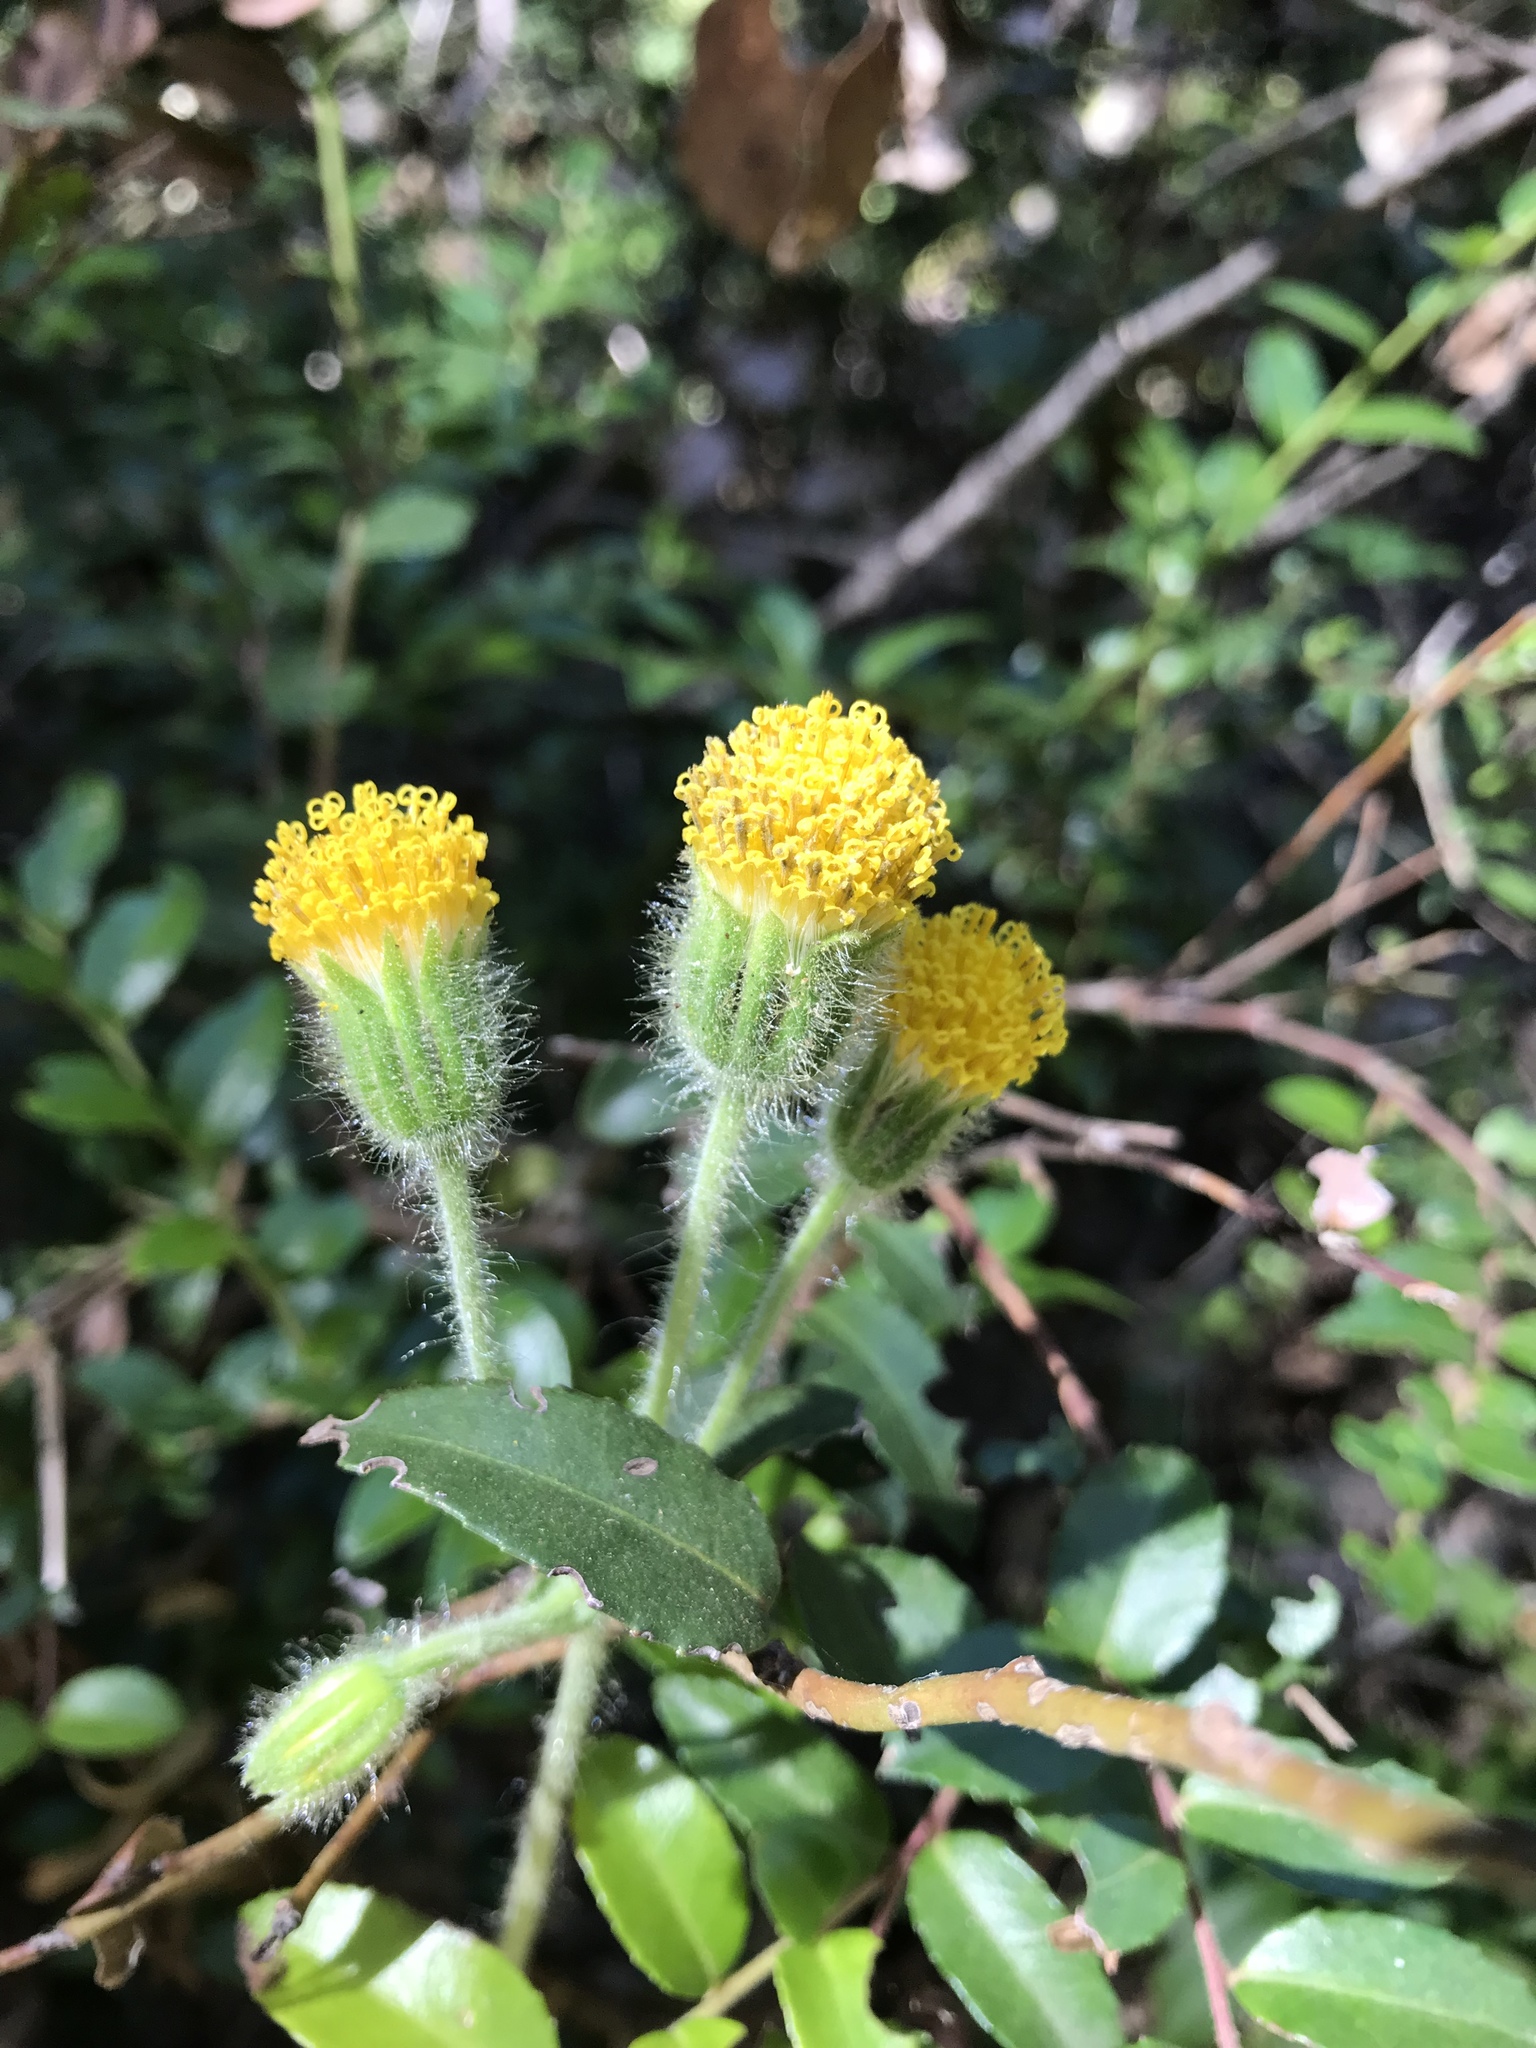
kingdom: Plantae
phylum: Tracheophyta
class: Magnoliopsida
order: Asterales
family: Asteraceae
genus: Arnica
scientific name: Arnica discoidea
